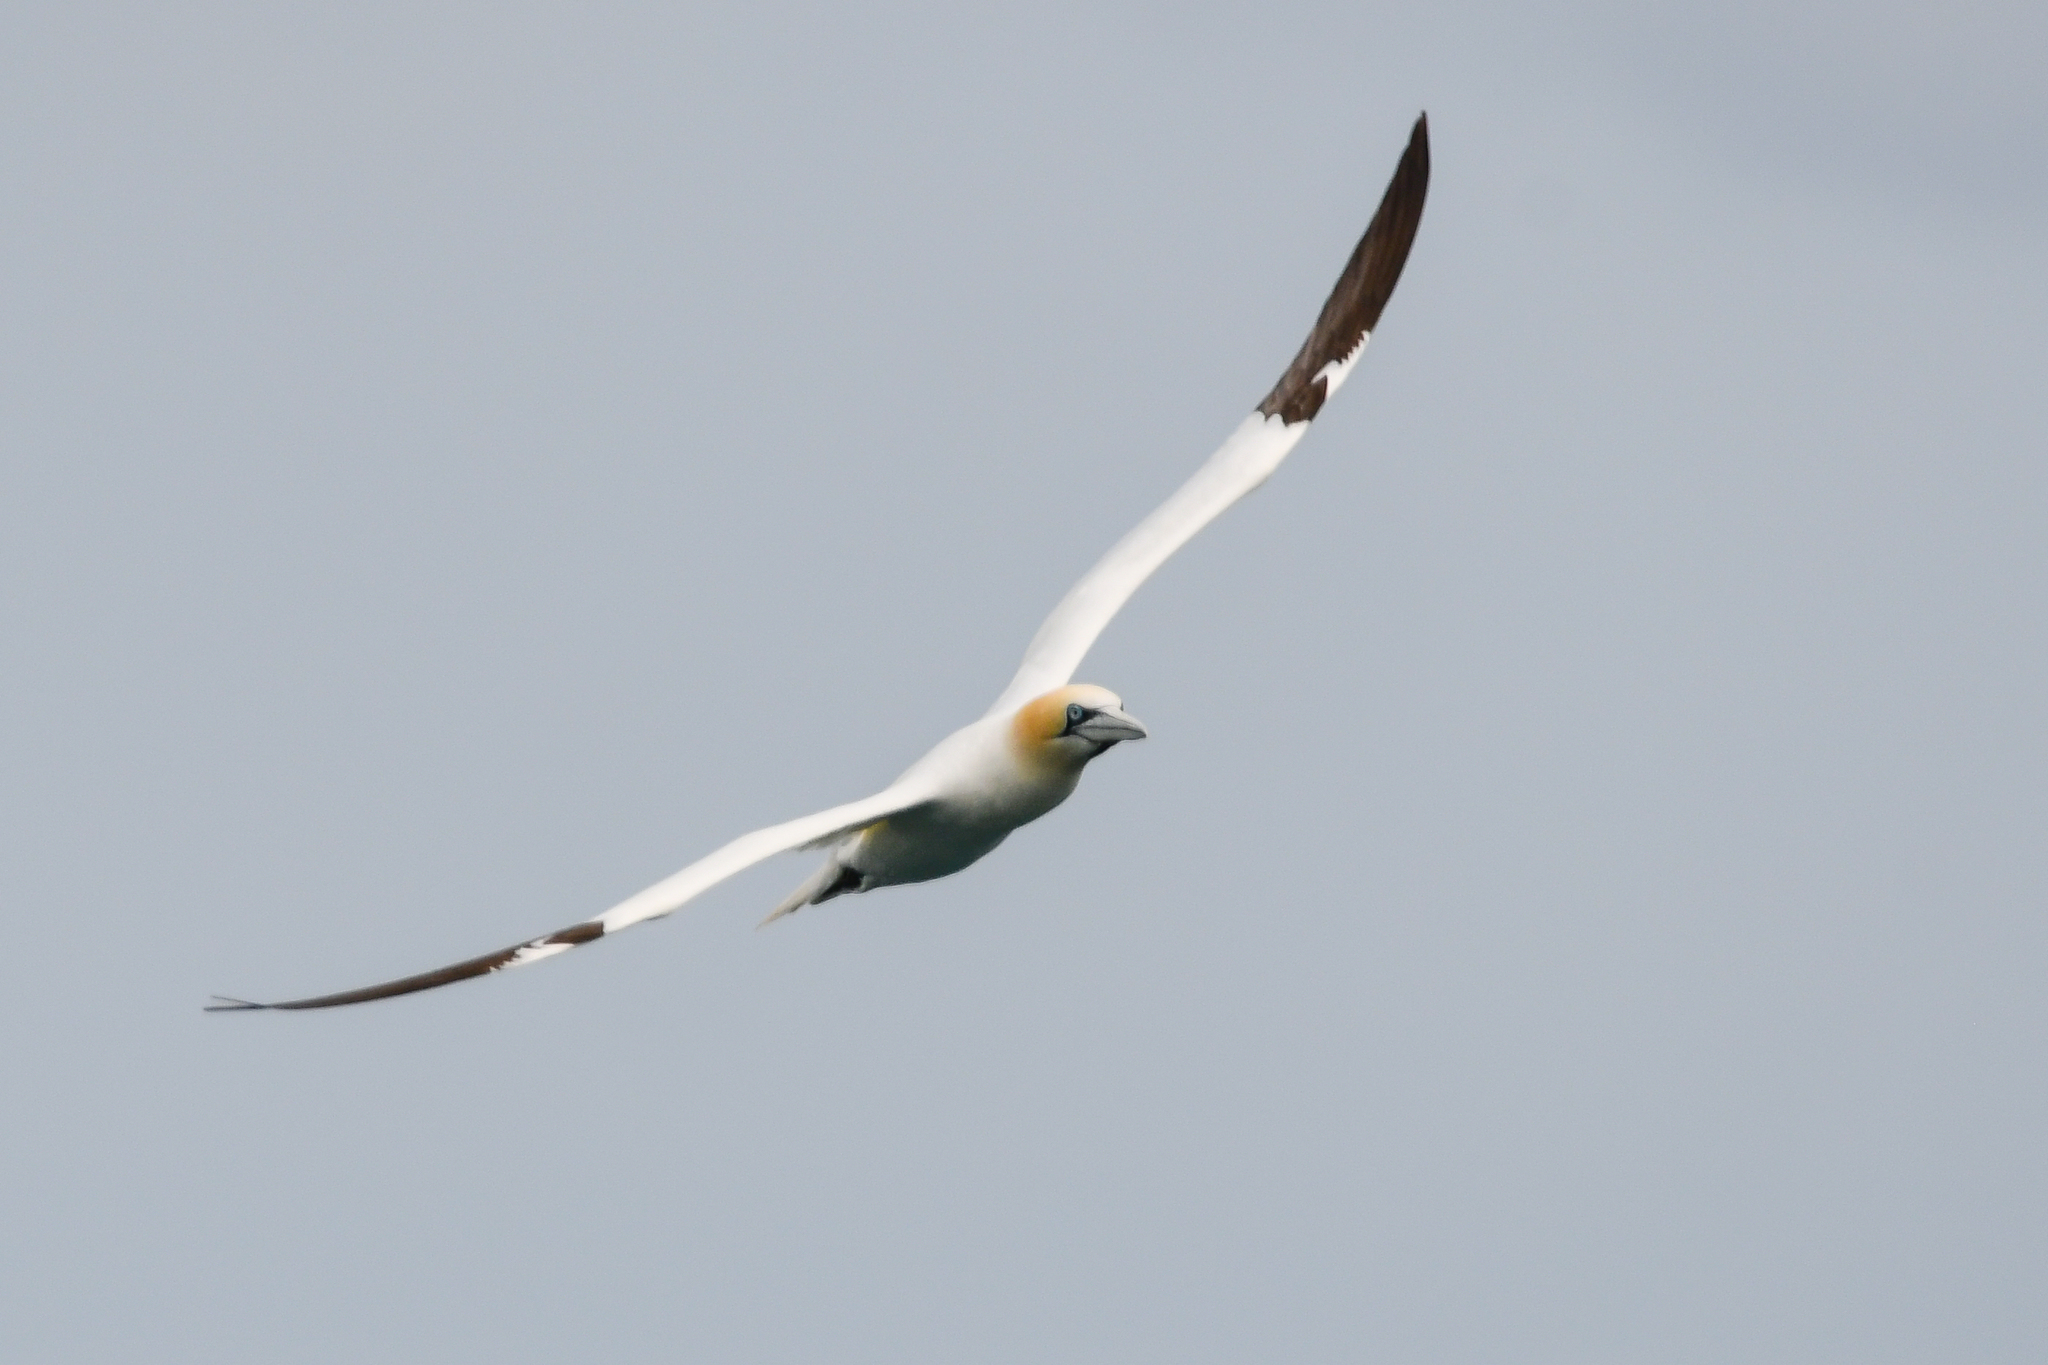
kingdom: Animalia
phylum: Chordata
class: Aves
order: Suliformes
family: Sulidae
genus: Morus
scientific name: Morus bassanus
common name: Northern gannet
